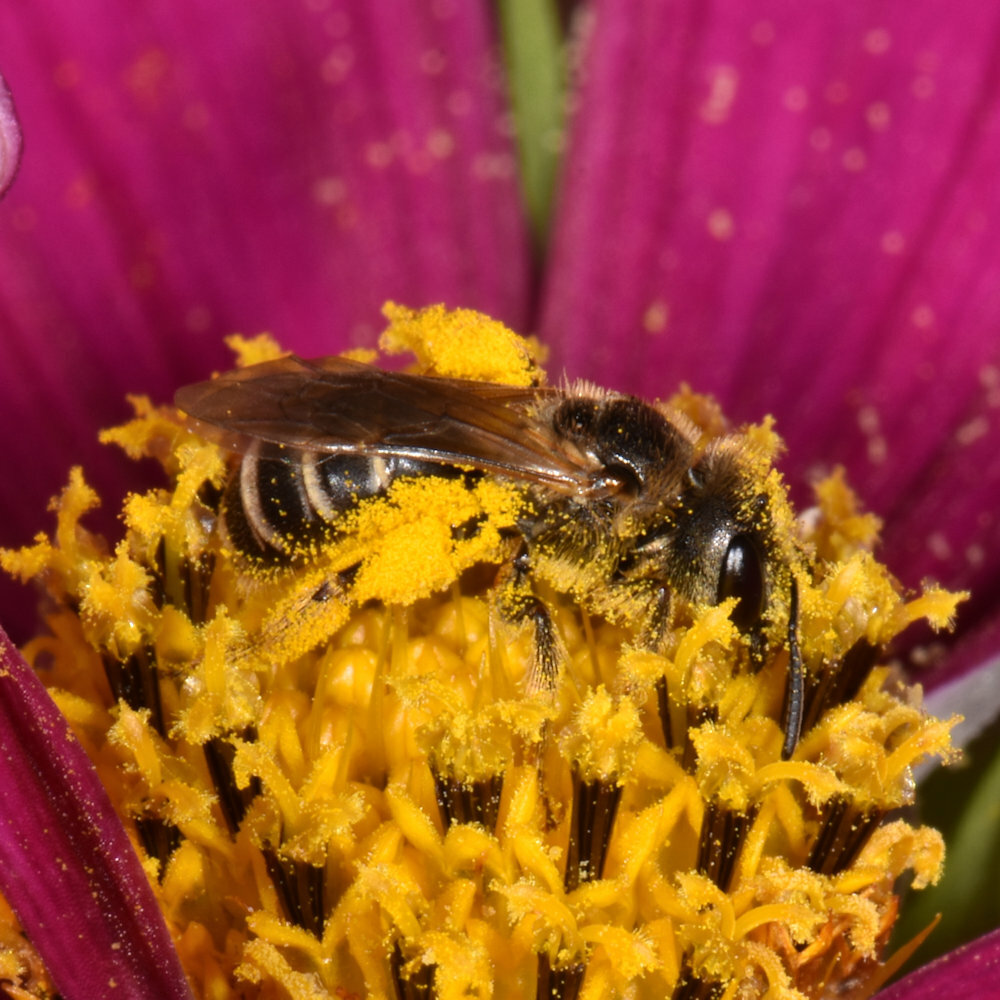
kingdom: Animalia
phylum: Arthropoda
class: Insecta
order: Hymenoptera
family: Halictidae
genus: Halictus
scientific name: Halictus ligatus
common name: Ligated furrow bee
